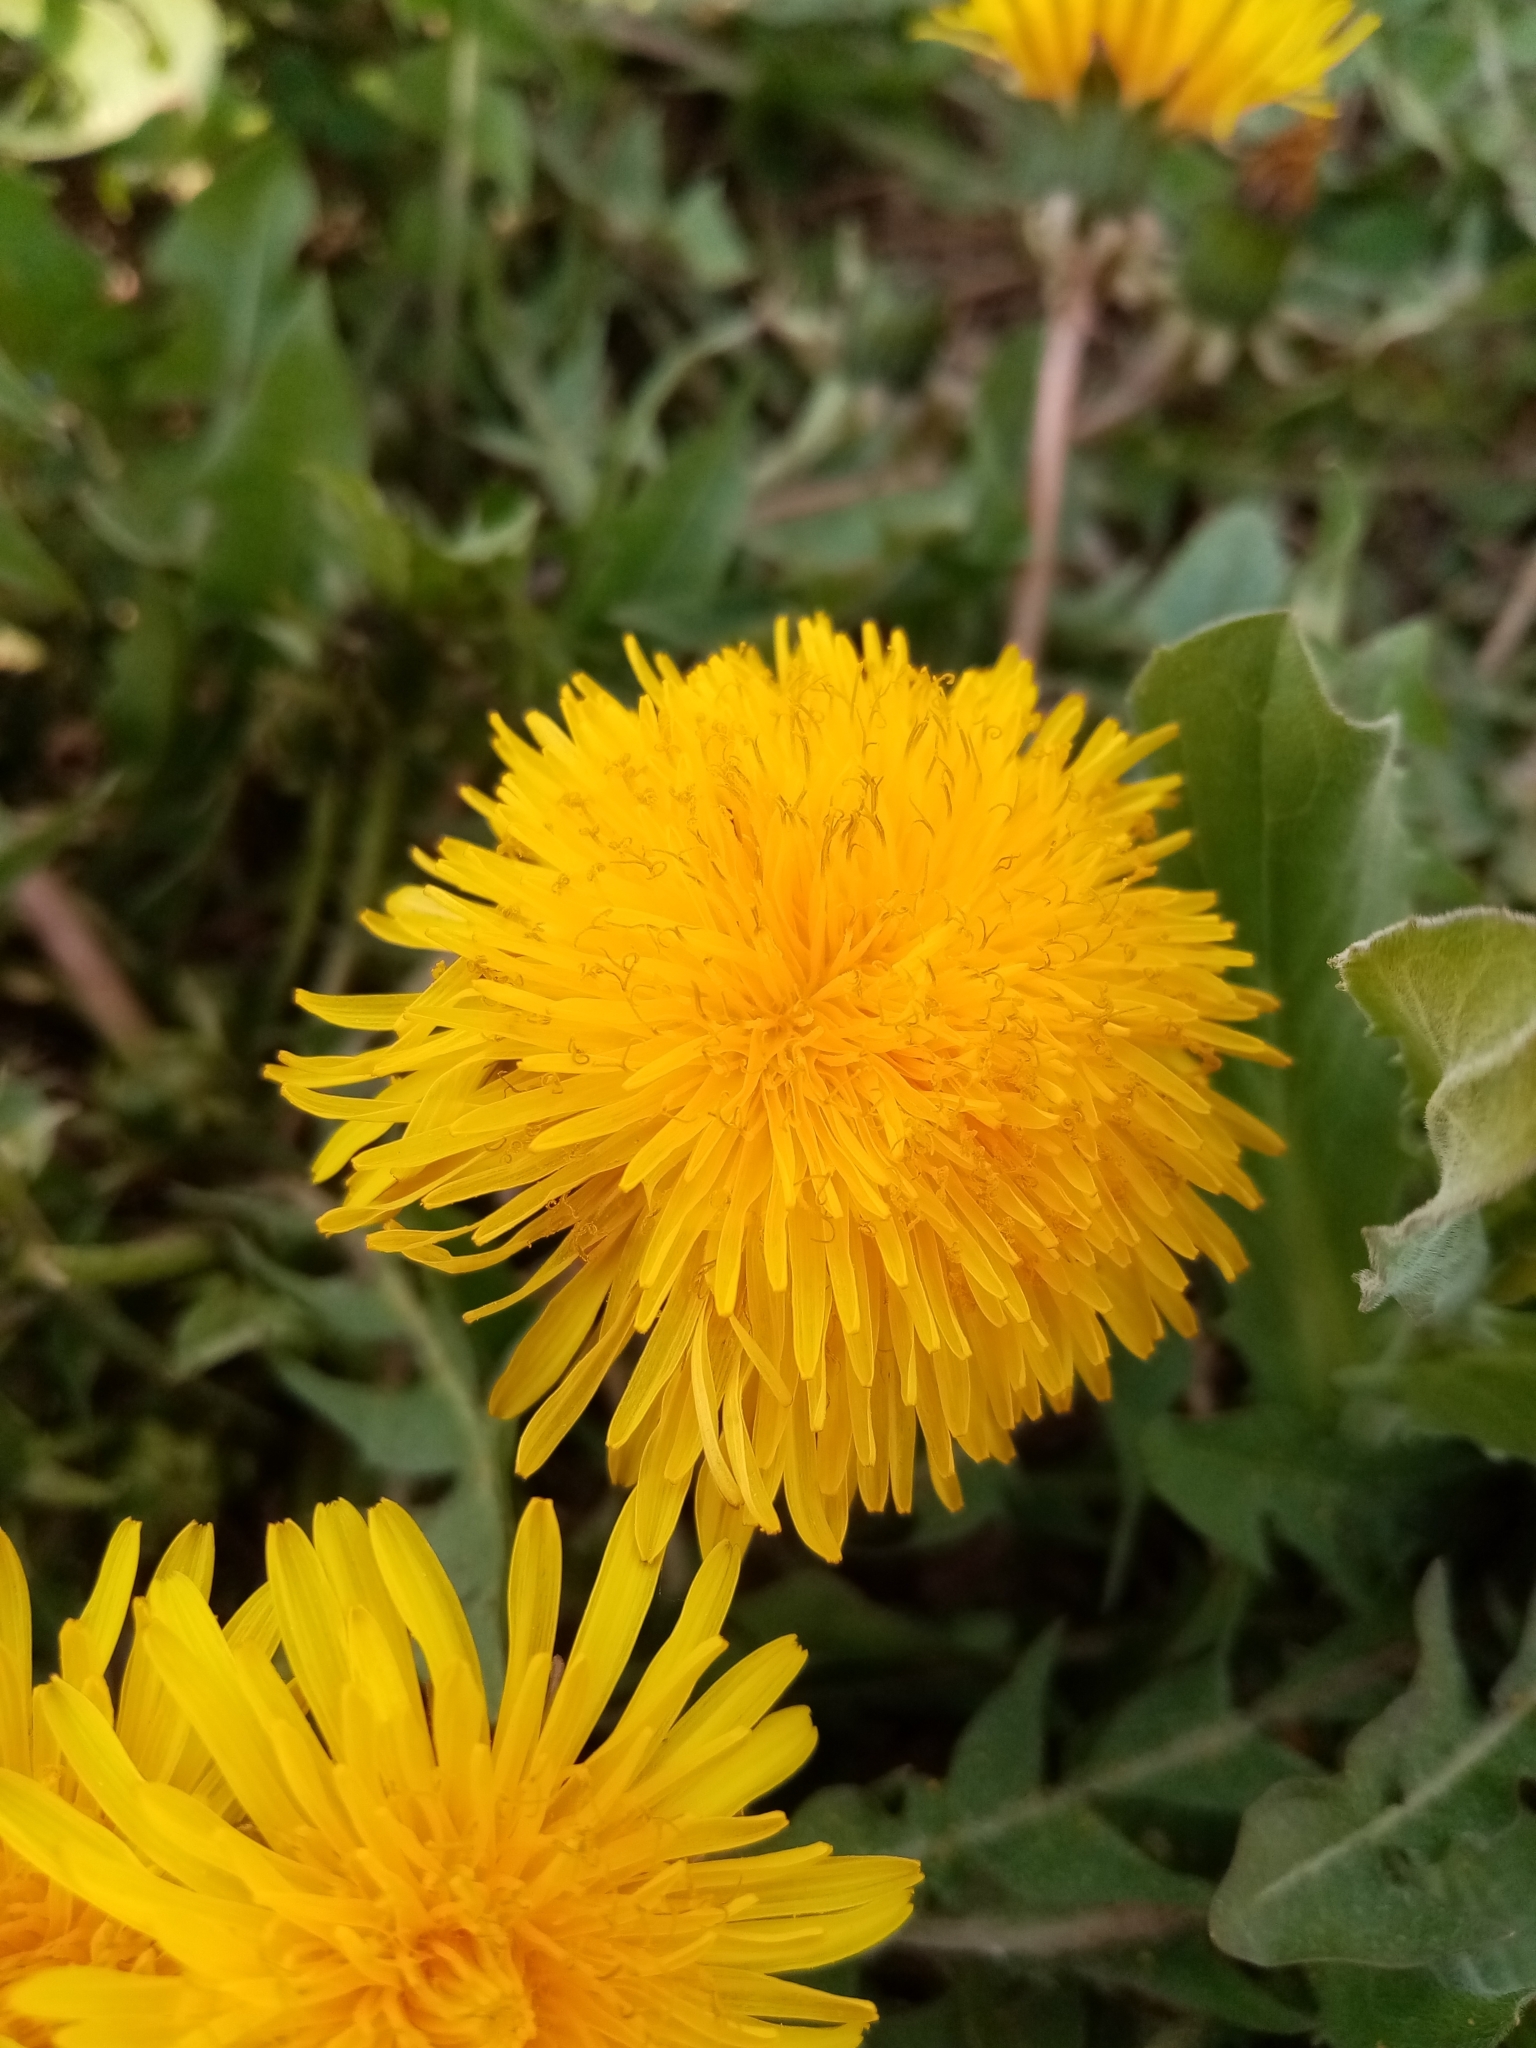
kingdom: Plantae
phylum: Tracheophyta
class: Magnoliopsida
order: Asterales
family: Asteraceae
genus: Taraxacum
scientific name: Taraxacum officinale
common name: Common dandelion
